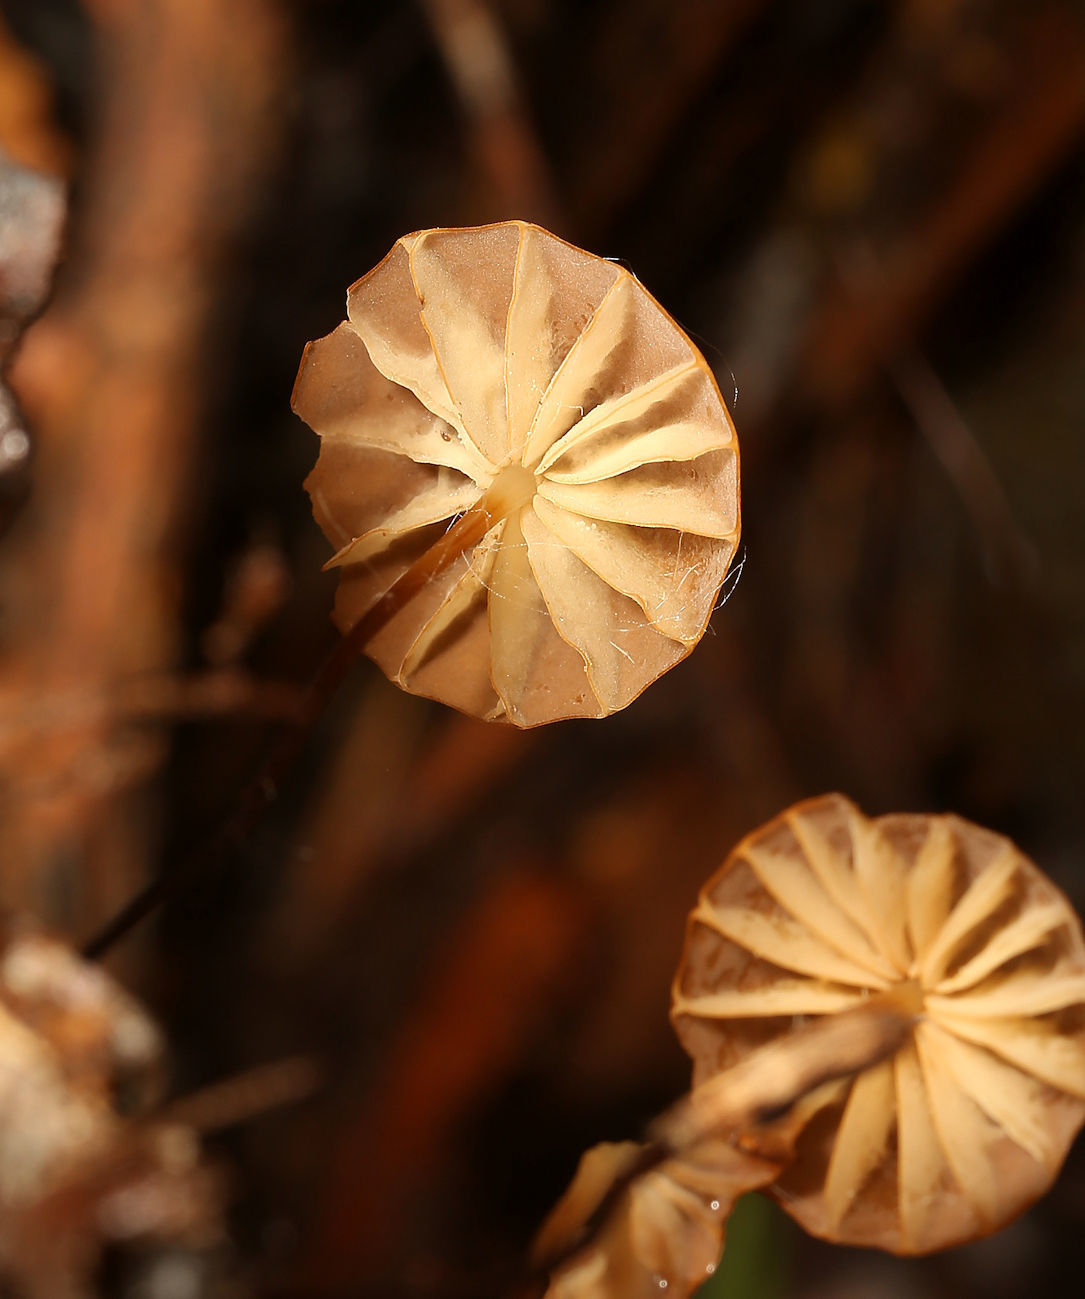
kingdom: Fungi
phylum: Basidiomycota
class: Agaricomycetes
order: Agaricales
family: Marasmiaceae
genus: Marasmius
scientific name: Marasmius siccus
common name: Orange pinwheel
